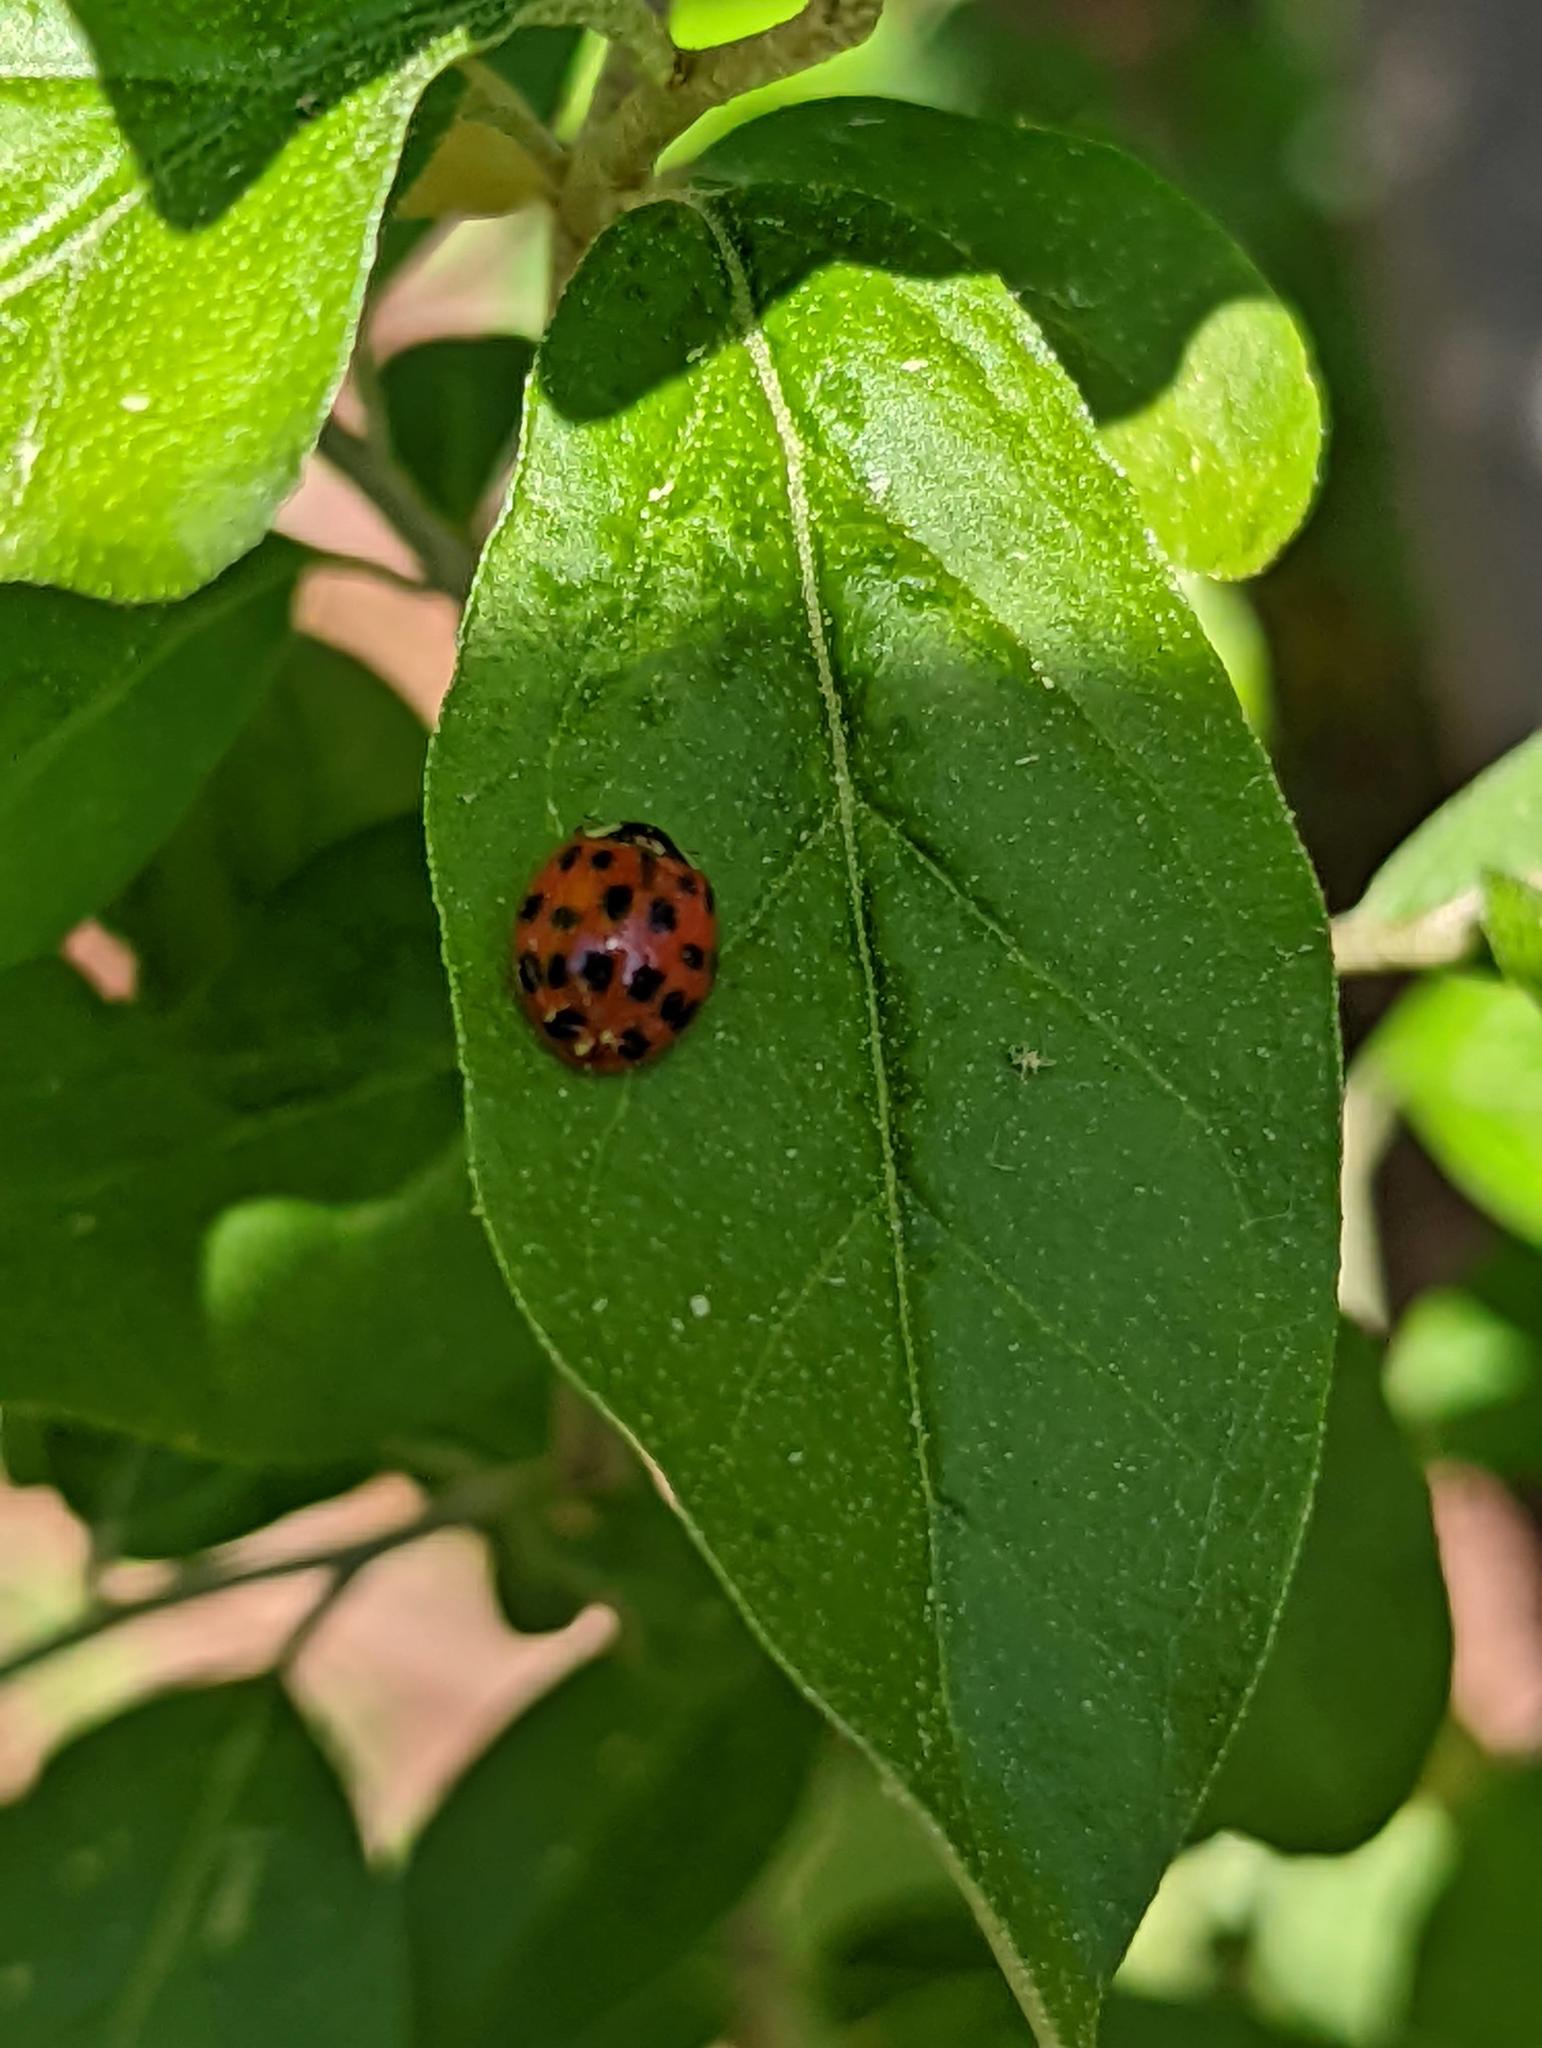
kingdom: Animalia
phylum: Arthropoda
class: Insecta
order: Coleoptera
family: Coccinellidae
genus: Harmonia
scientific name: Harmonia axyridis
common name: Harlequin ladybird
